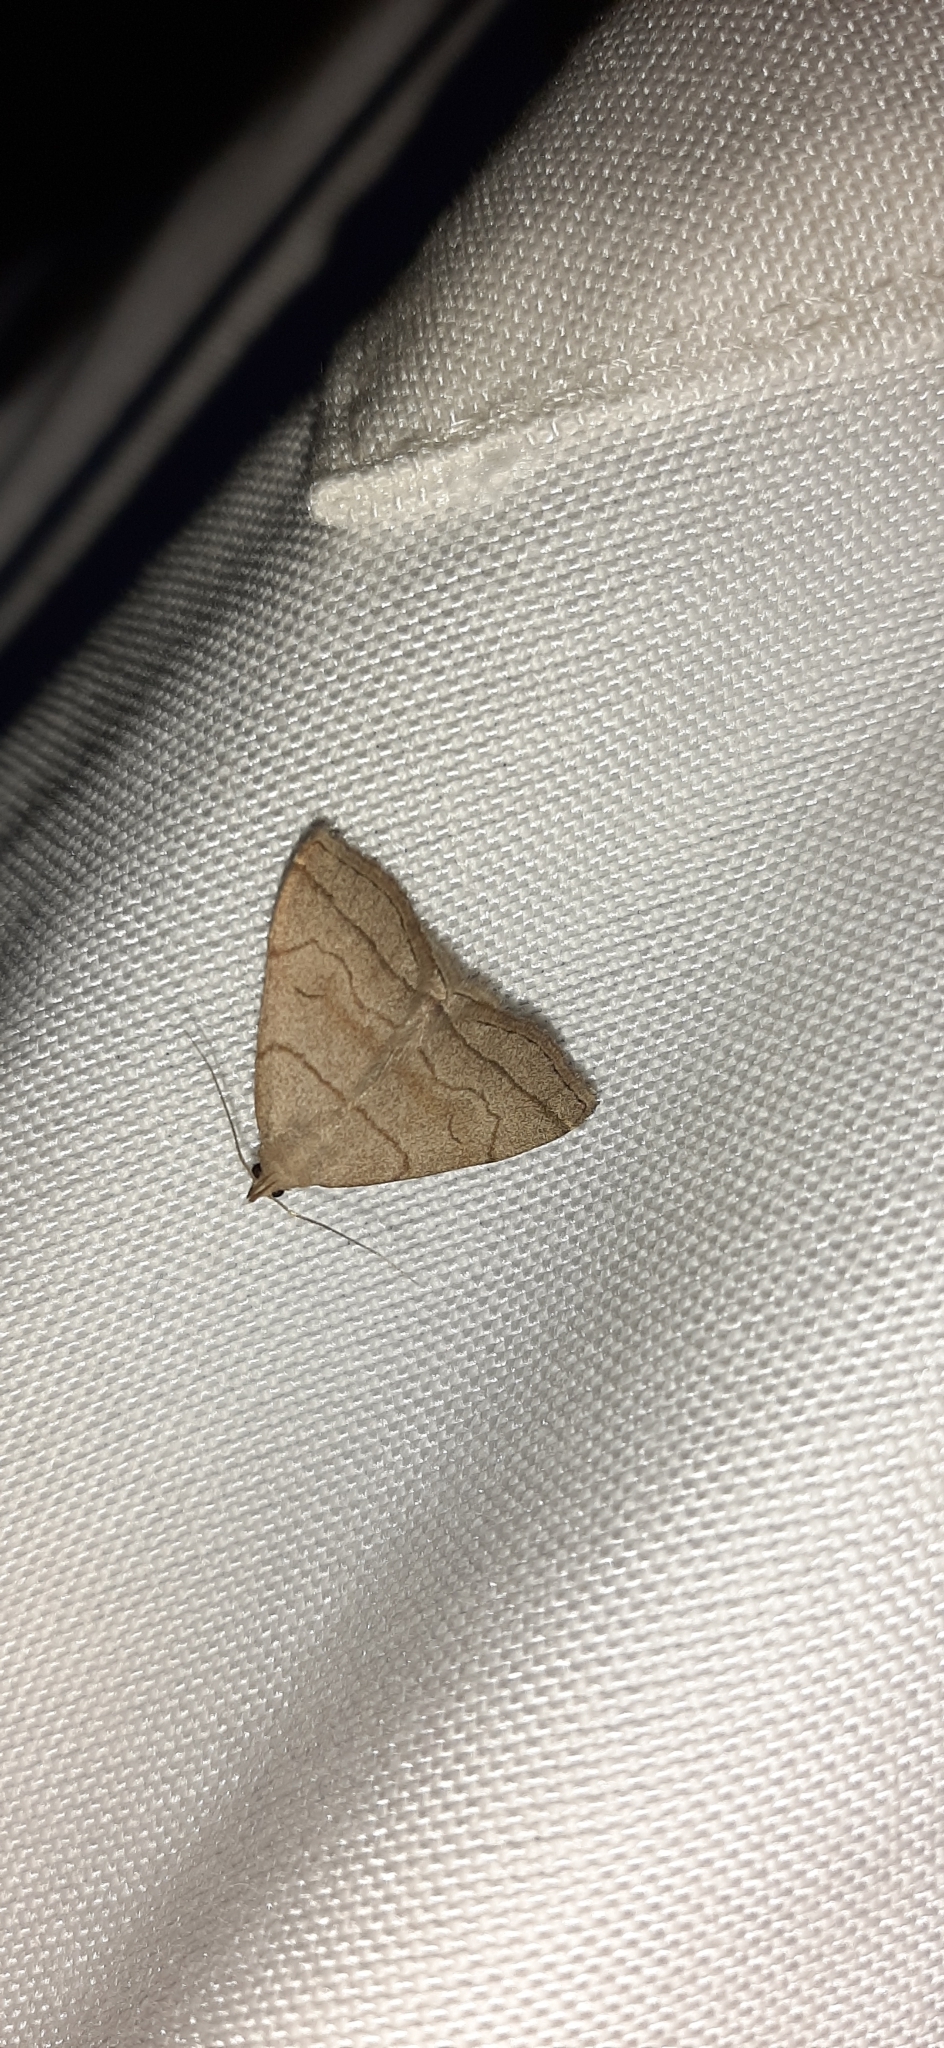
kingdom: Animalia
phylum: Arthropoda
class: Insecta
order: Lepidoptera
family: Erebidae
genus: Herminia
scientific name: Herminia tarsicrinalis
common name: Shaded fan-foot
